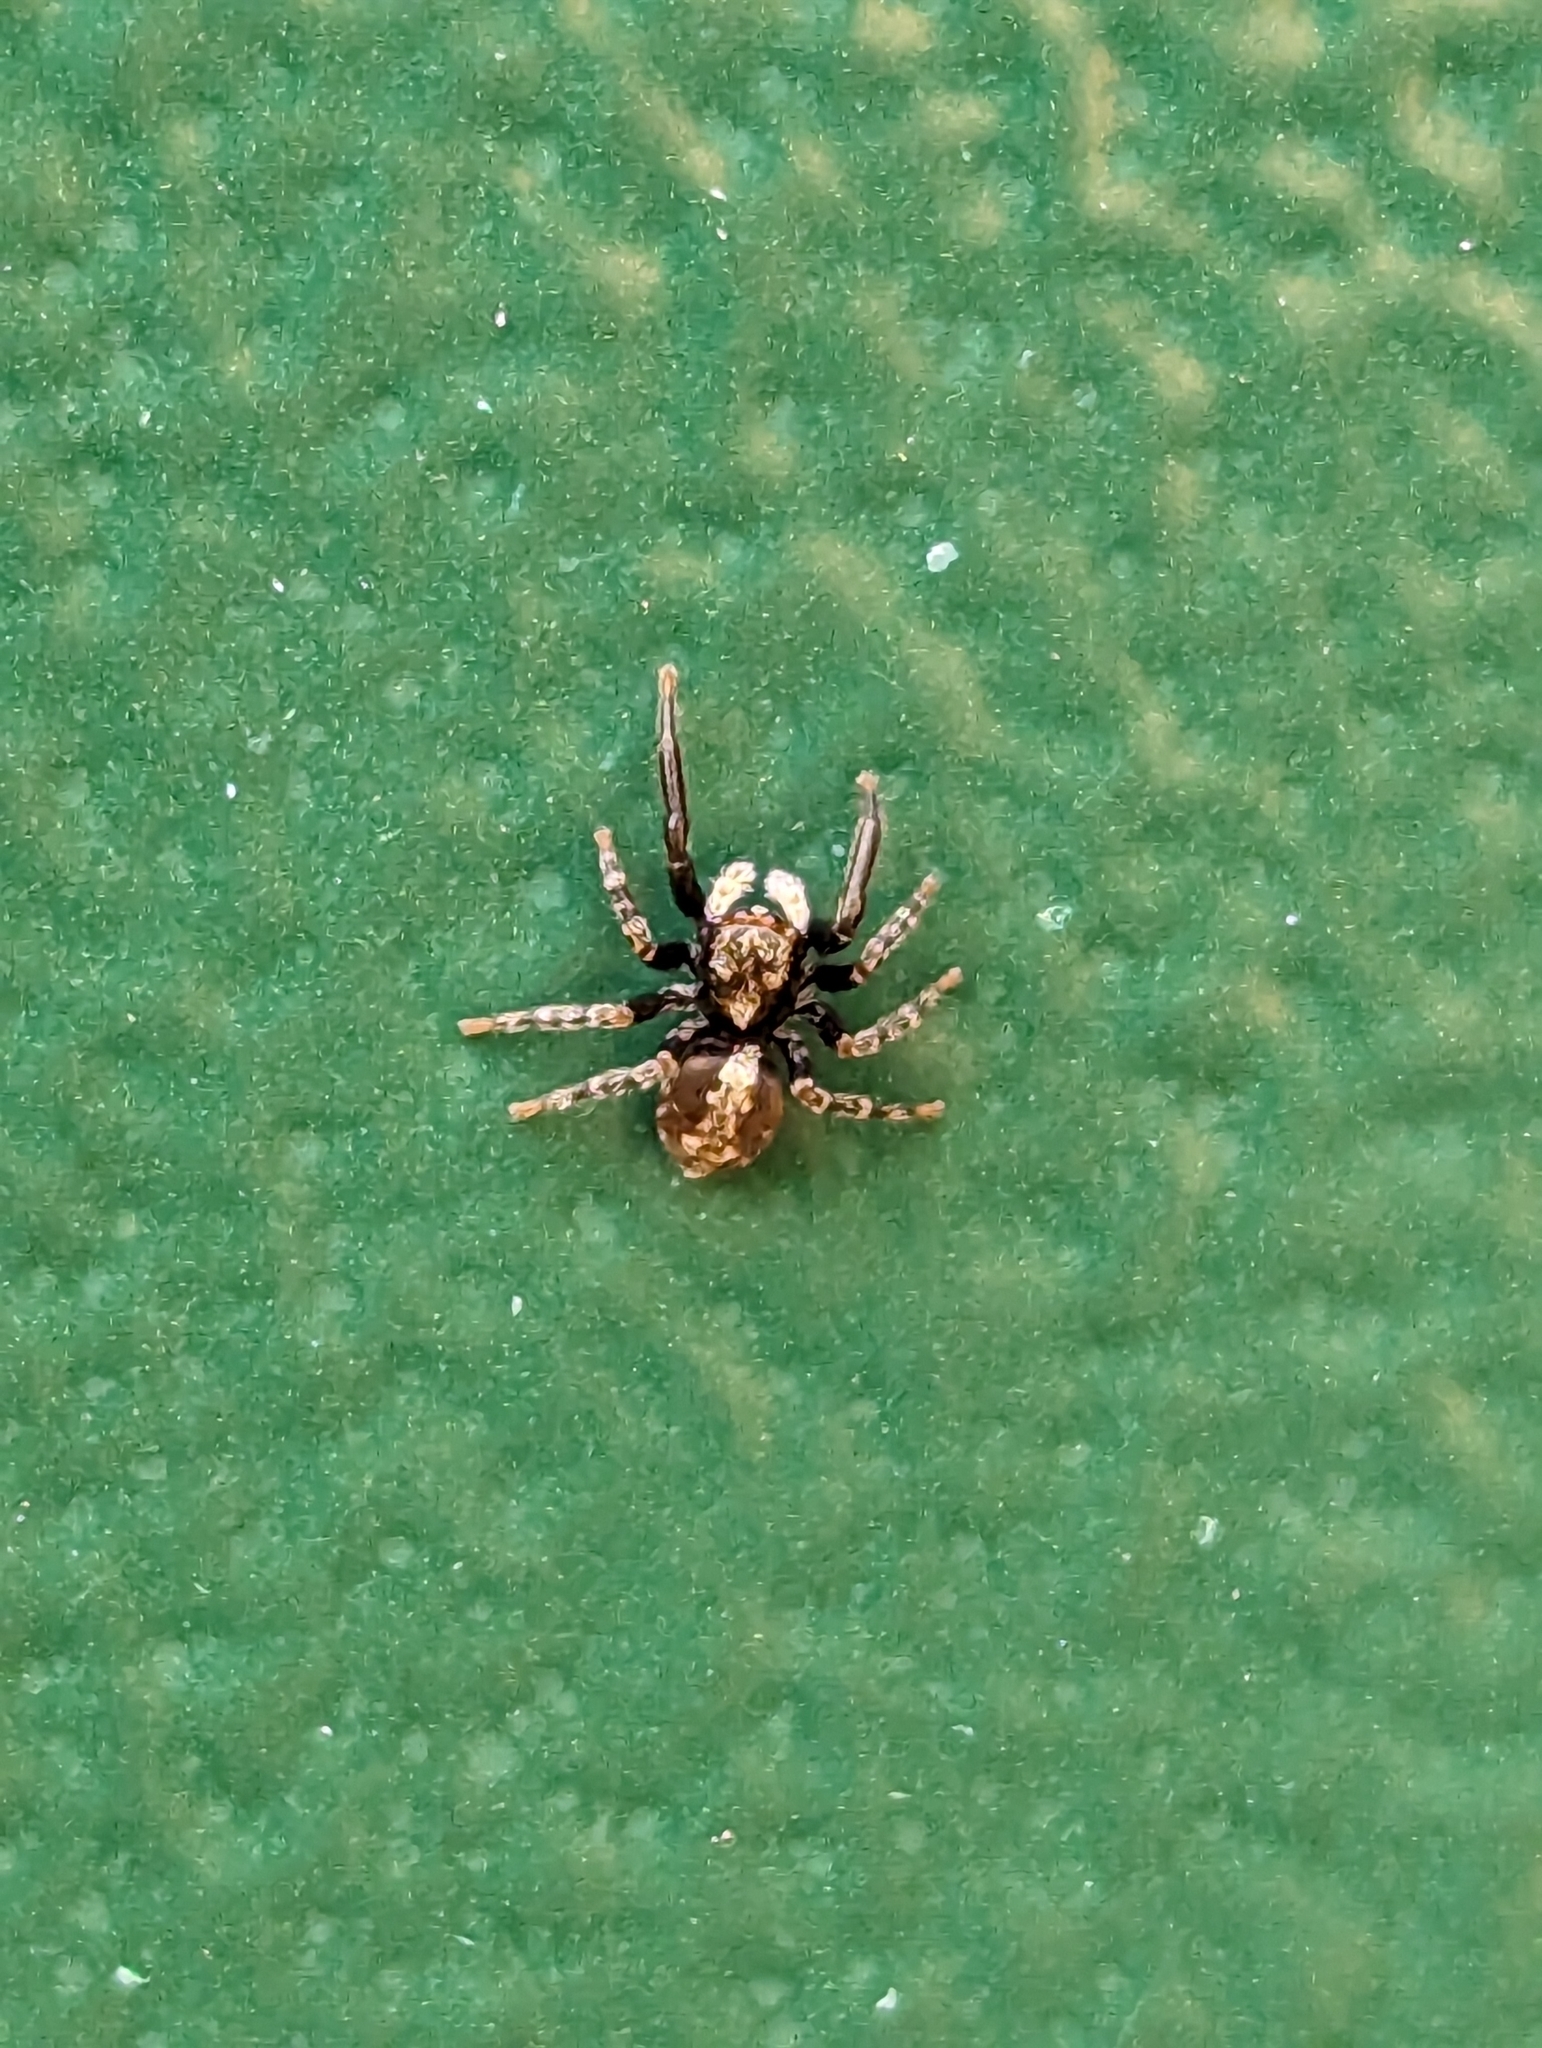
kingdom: Animalia
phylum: Arthropoda
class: Arachnida
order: Araneae
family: Salticidae
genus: Pseudeuophrys
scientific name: Pseudeuophrys lanigera
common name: Jumping spider
